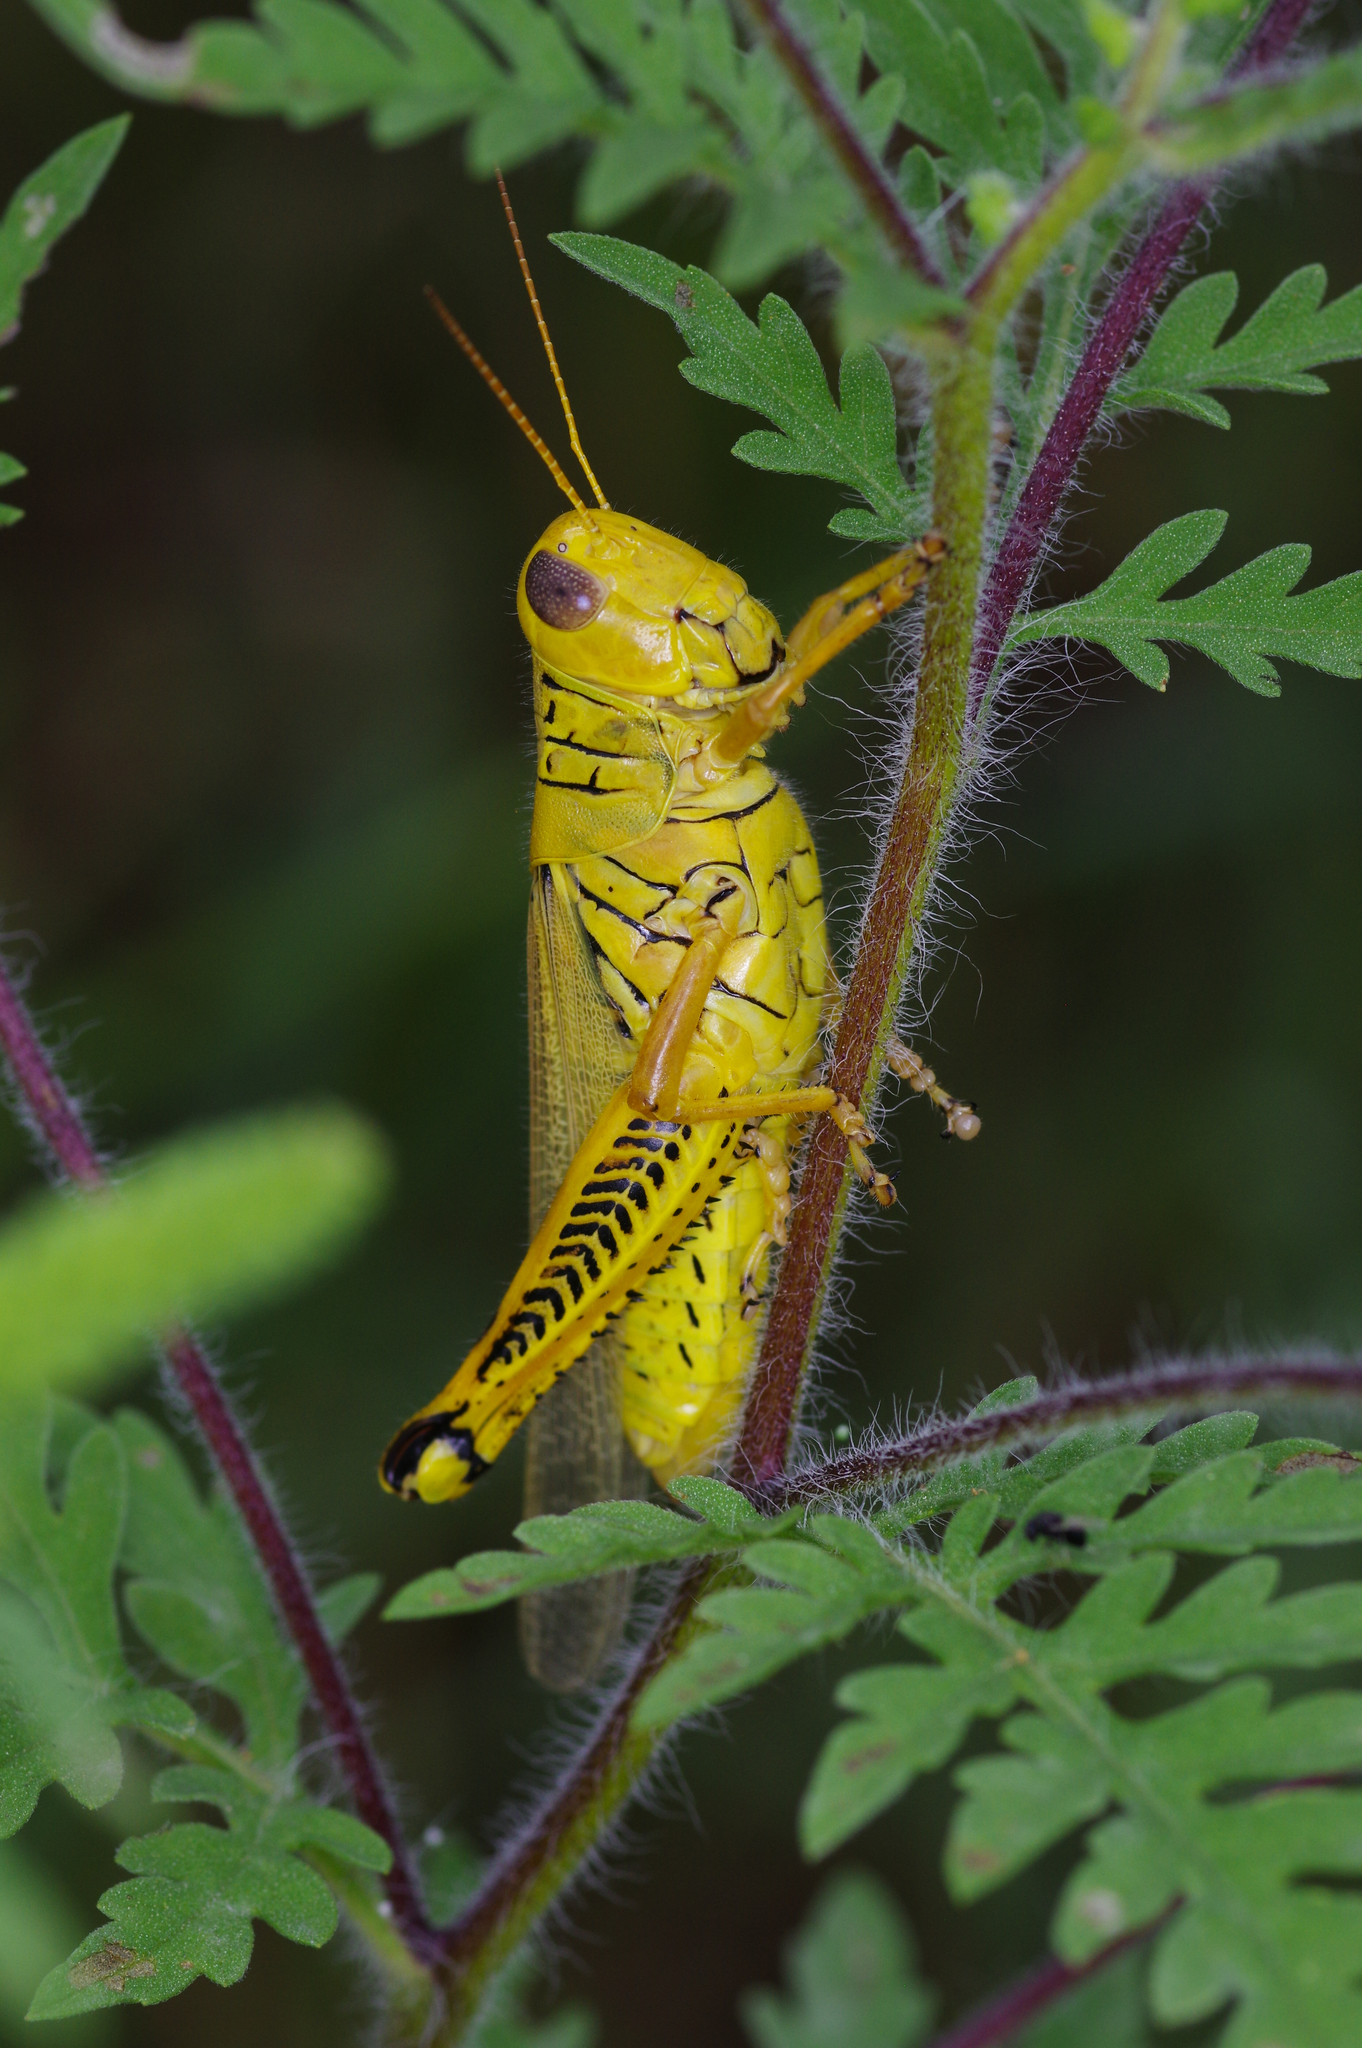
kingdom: Animalia
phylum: Arthropoda
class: Insecta
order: Orthoptera
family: Acrididae
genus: Melanoplus
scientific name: Melanoplus differentialis
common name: Differential grasshopper
